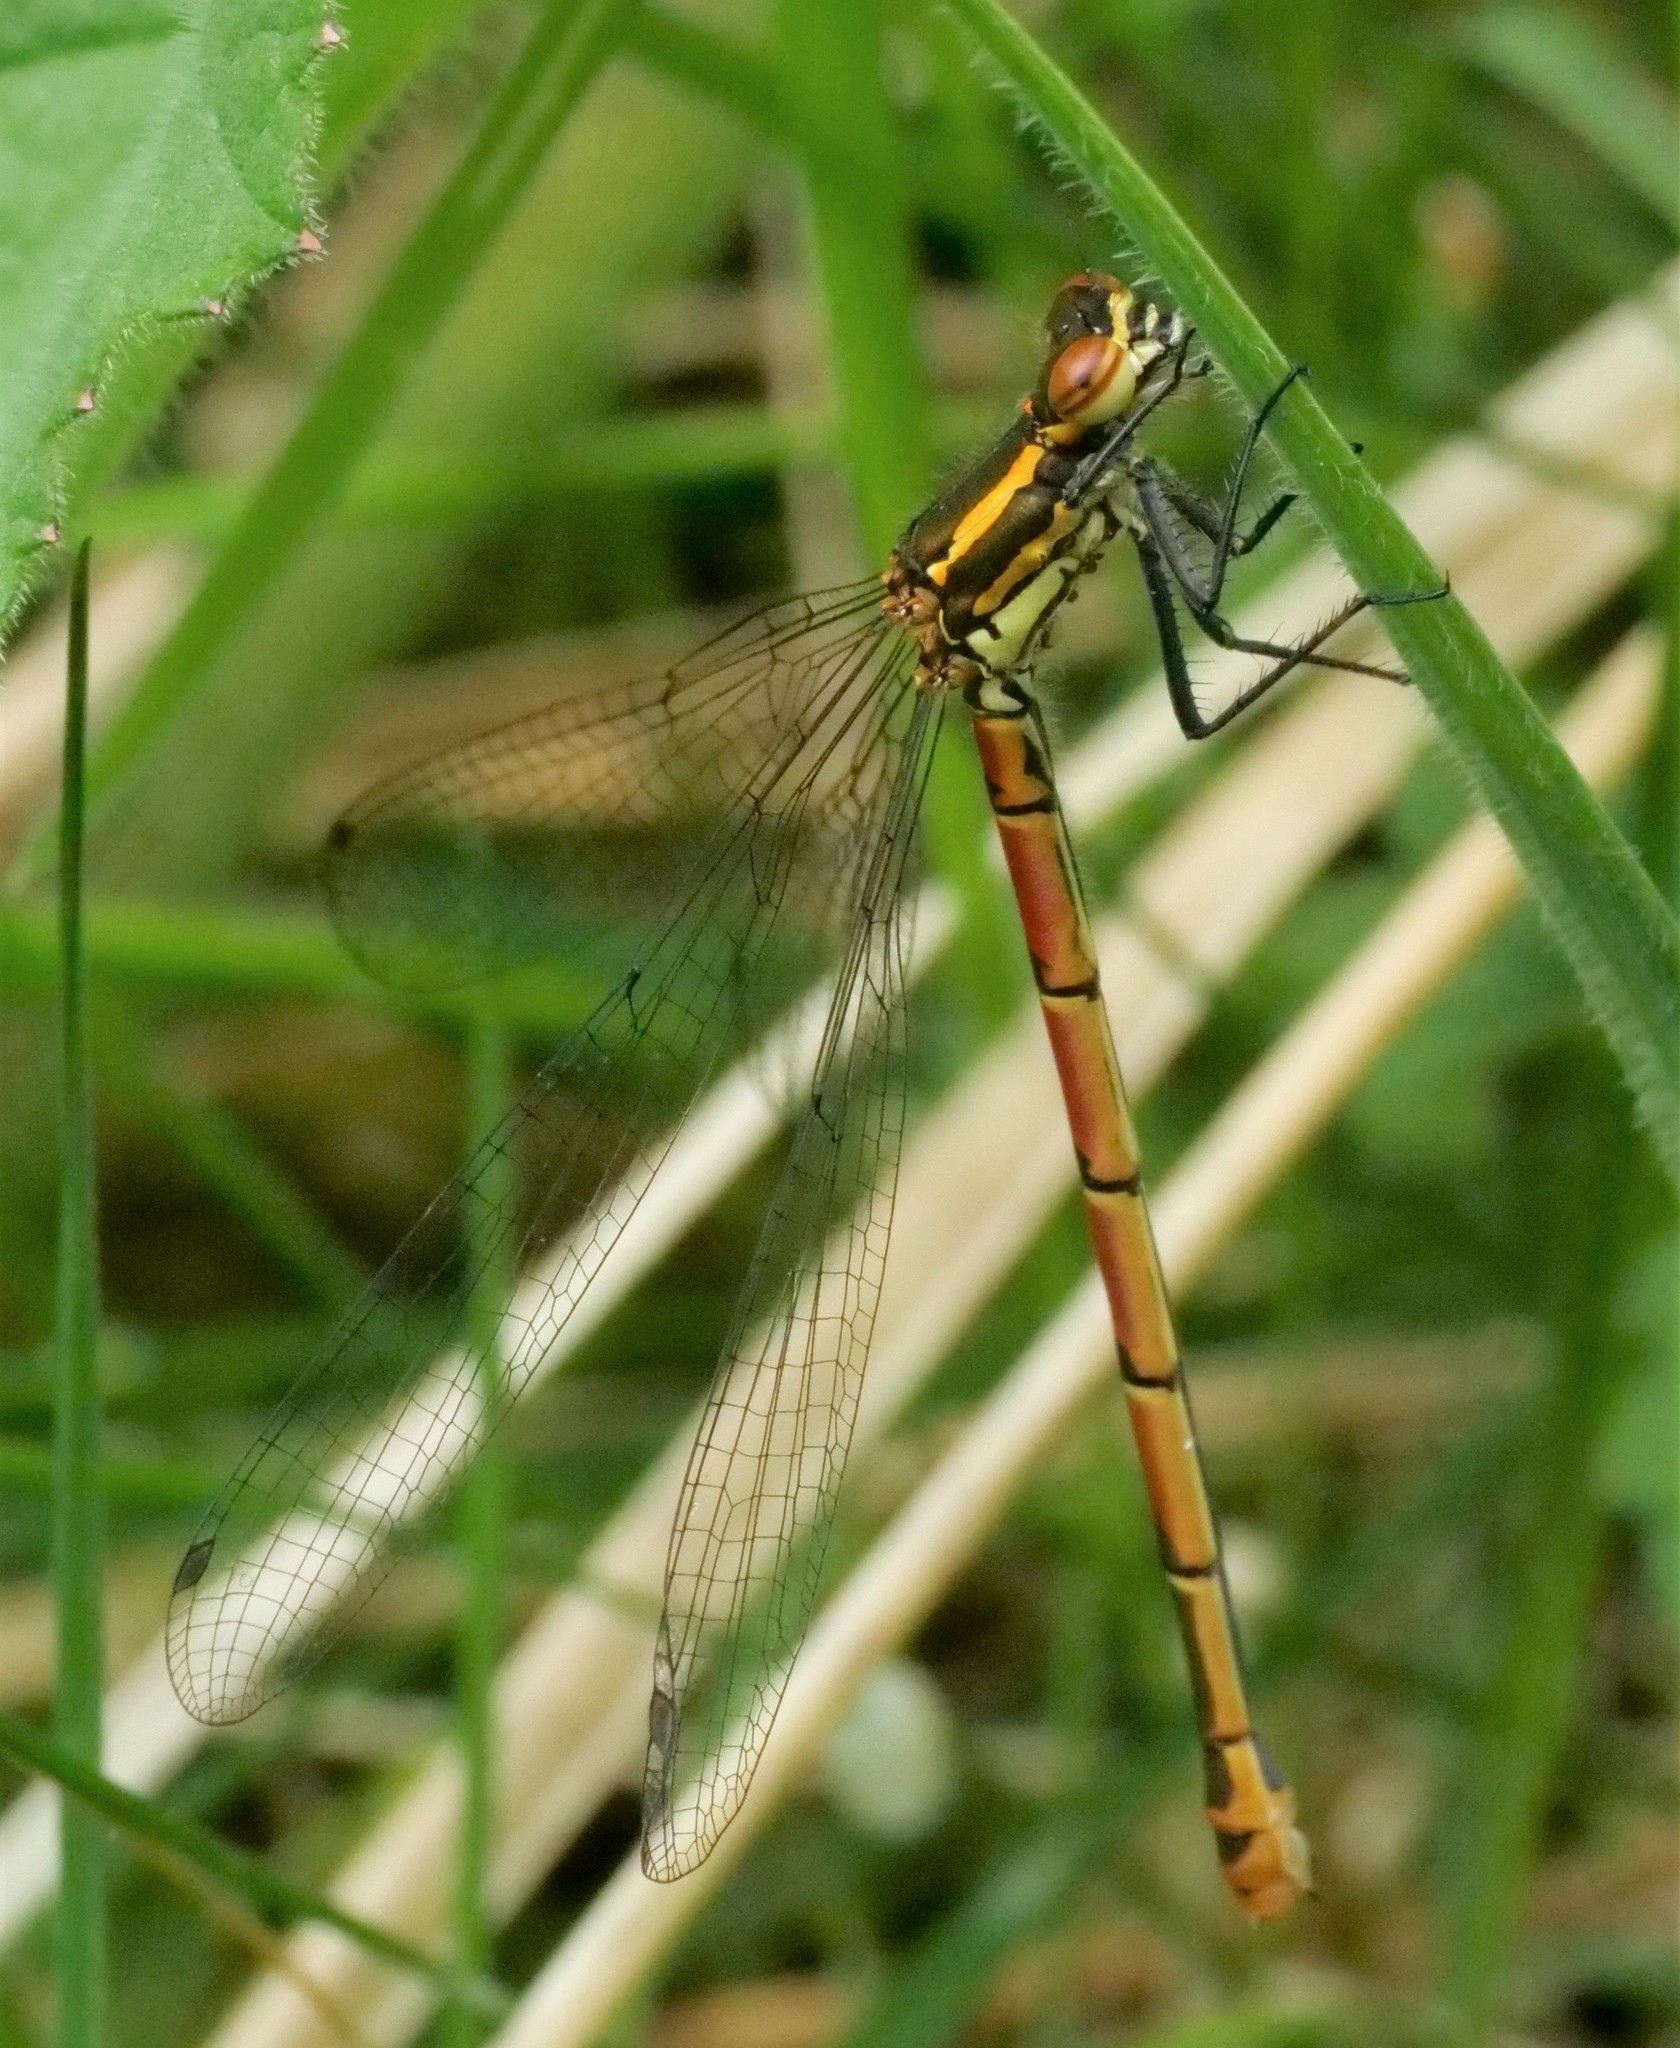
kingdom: Animalia
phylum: Arthropoda
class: Insecta
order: Odonata
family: Coenagrionidae
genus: Pyrrhosoma
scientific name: Pyrrhosoma nymphula
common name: Large red damsel
